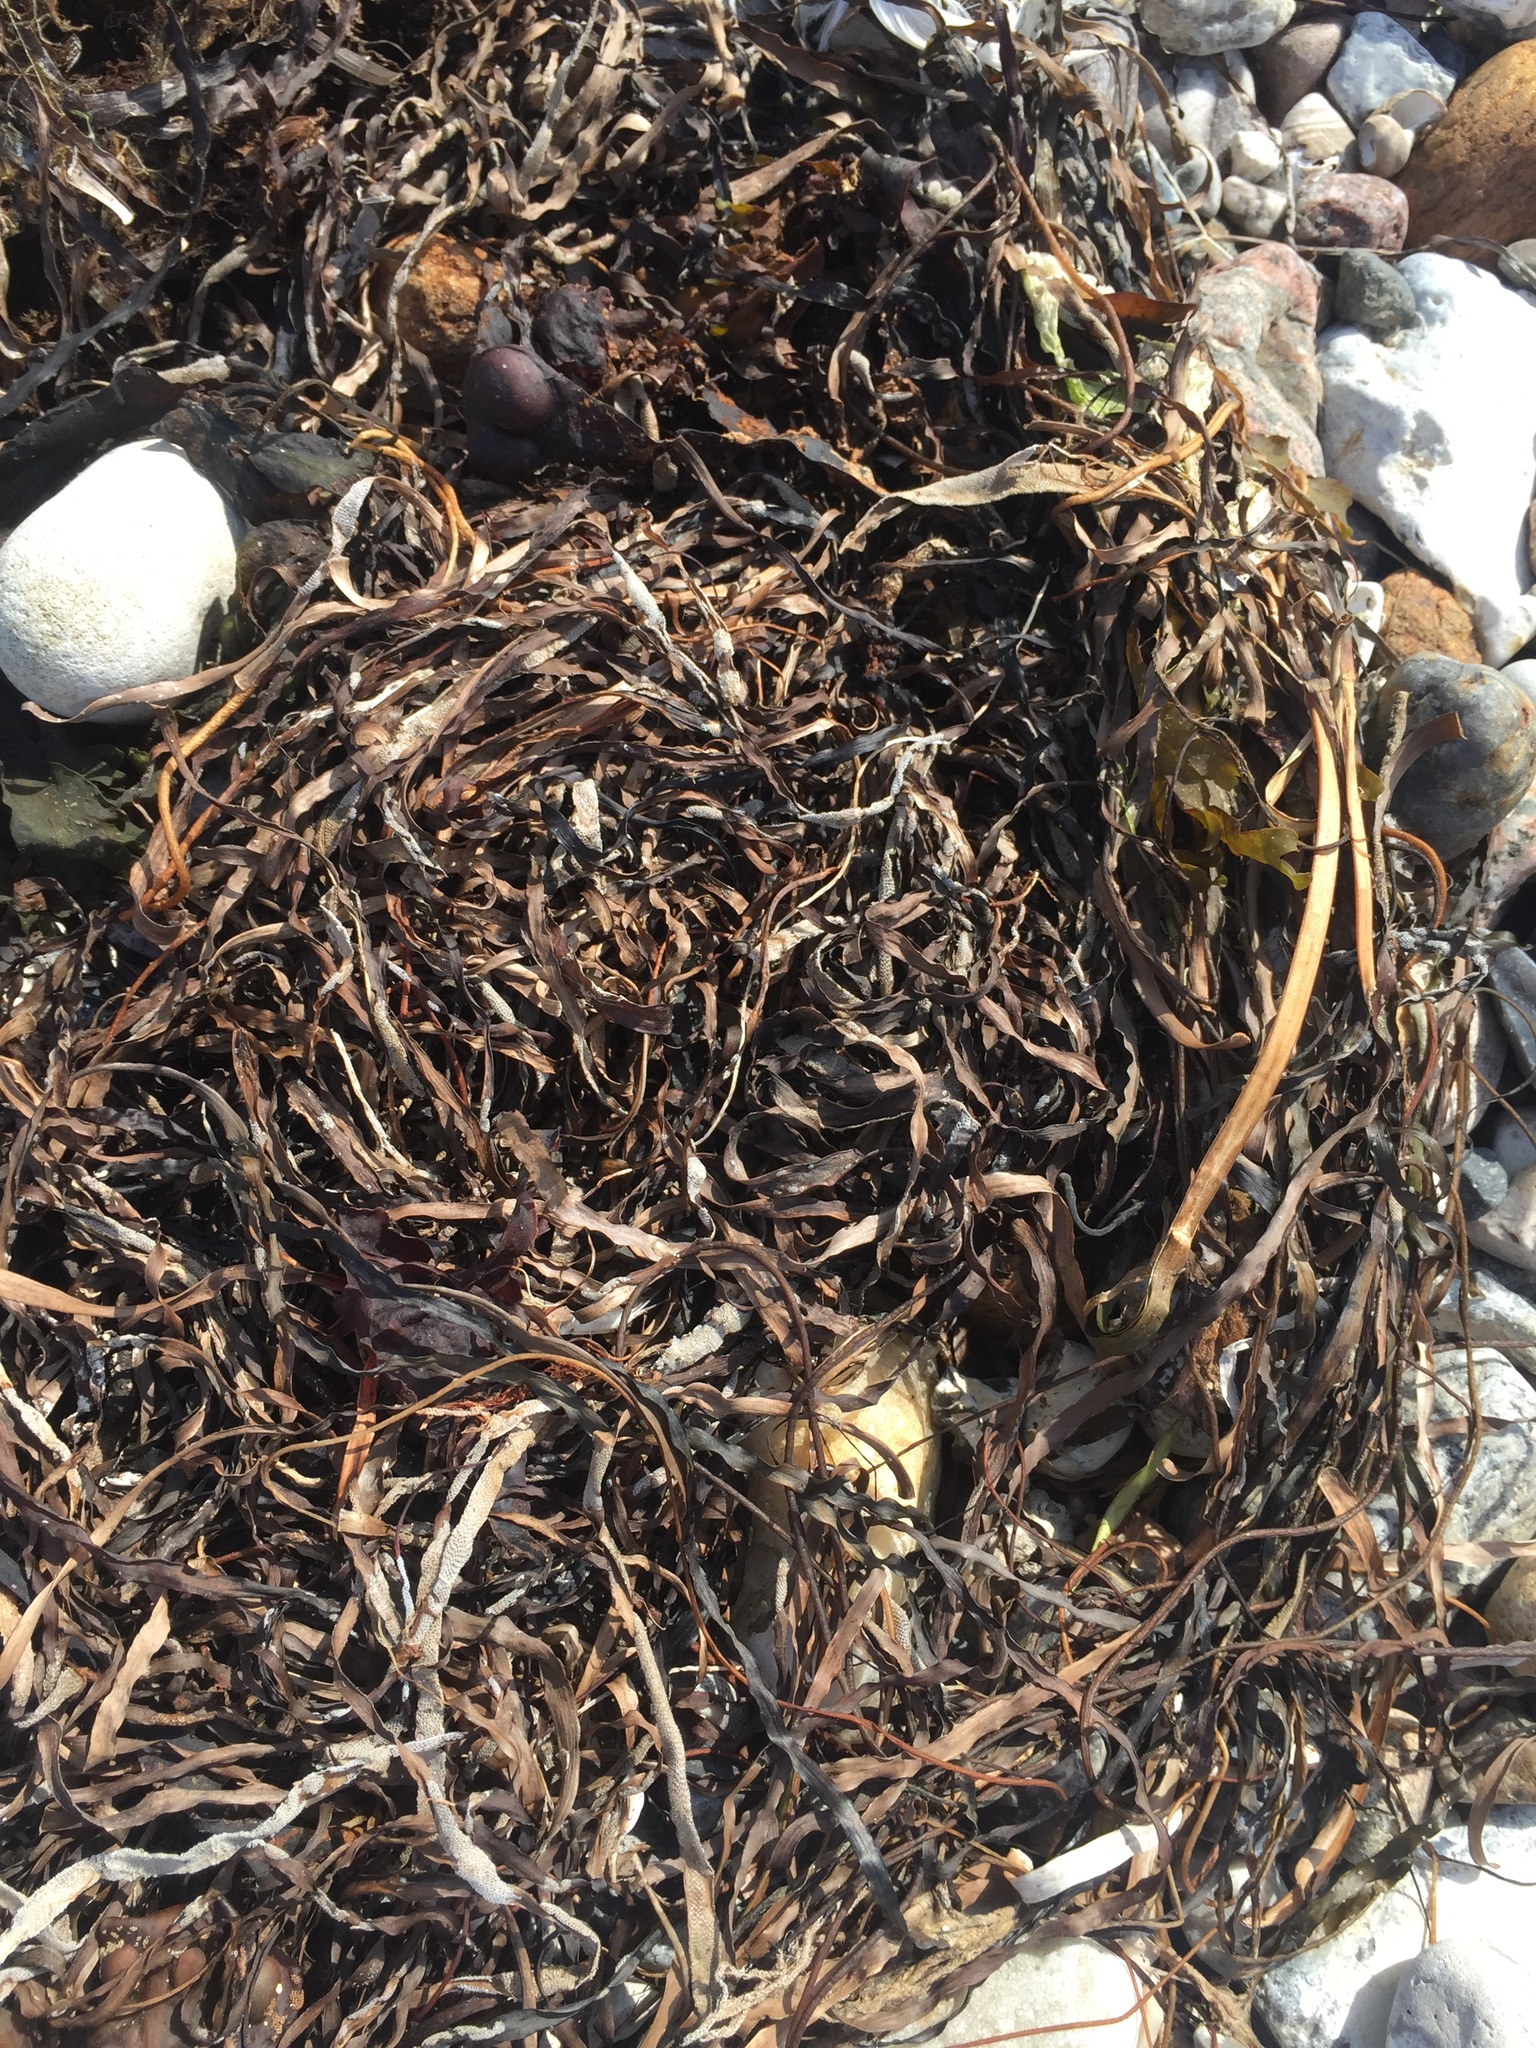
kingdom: Plantae
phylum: Tracheophyta
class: Liliopsida
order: Alismatales
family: Zosteraceae
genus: Zostera
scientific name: Zostera marina
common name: Eelgrass
